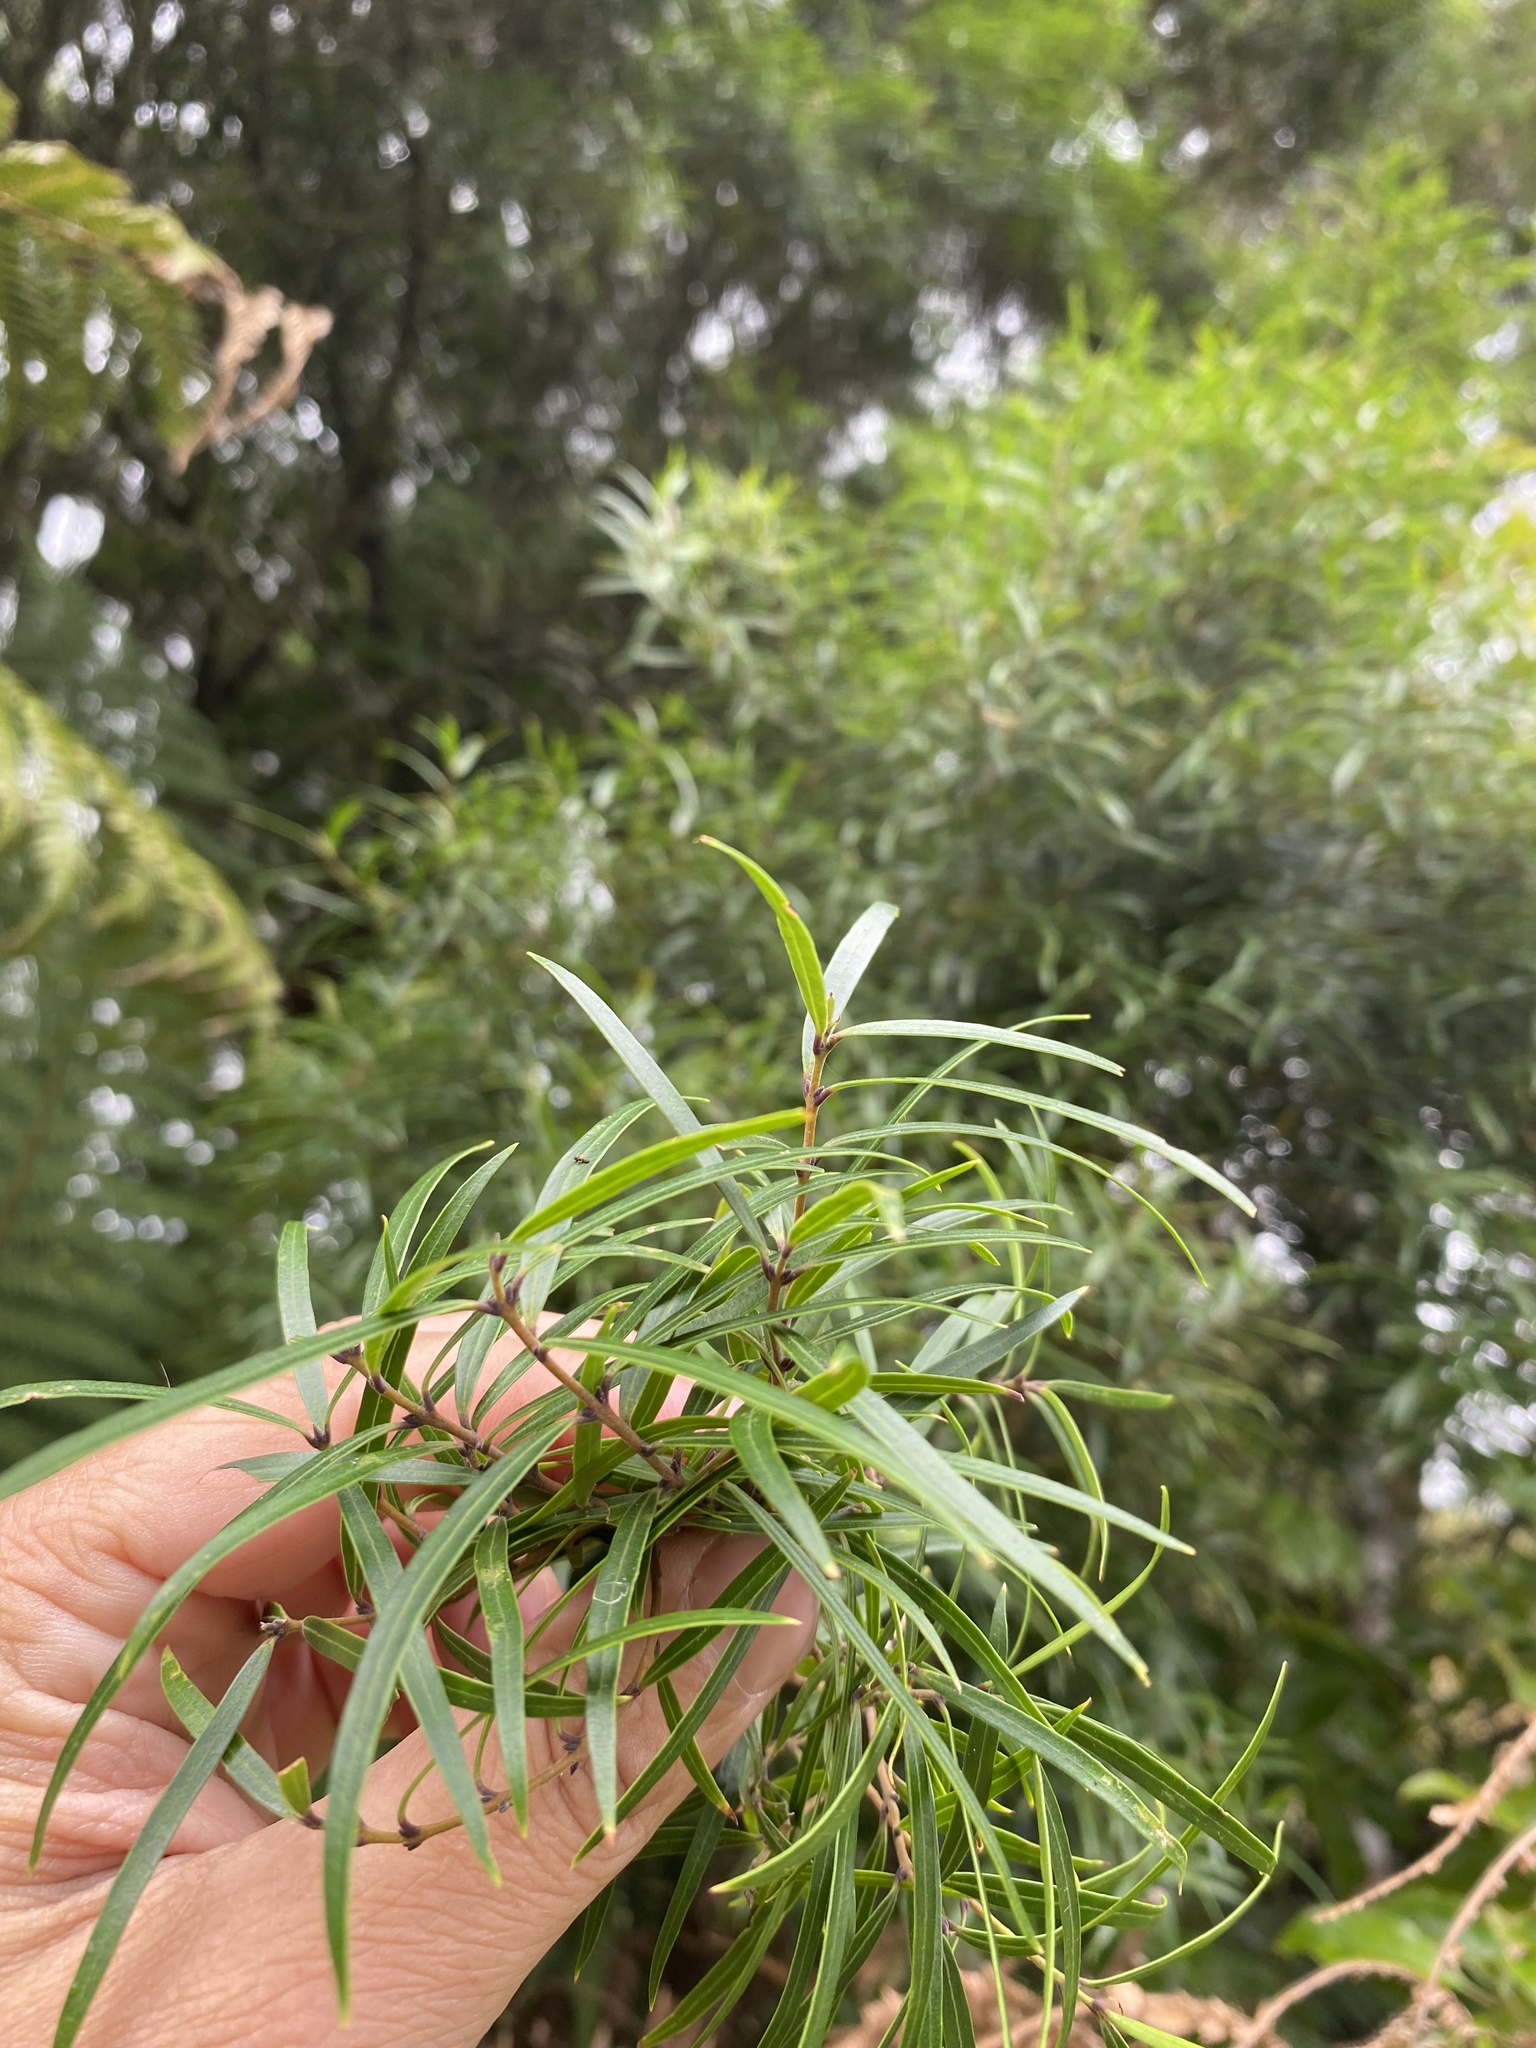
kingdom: Plantae
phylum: Tracheophyta
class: Magnoliopsida
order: Lamiales
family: Oleaceae
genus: Nestegis
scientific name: Nestegis montana
